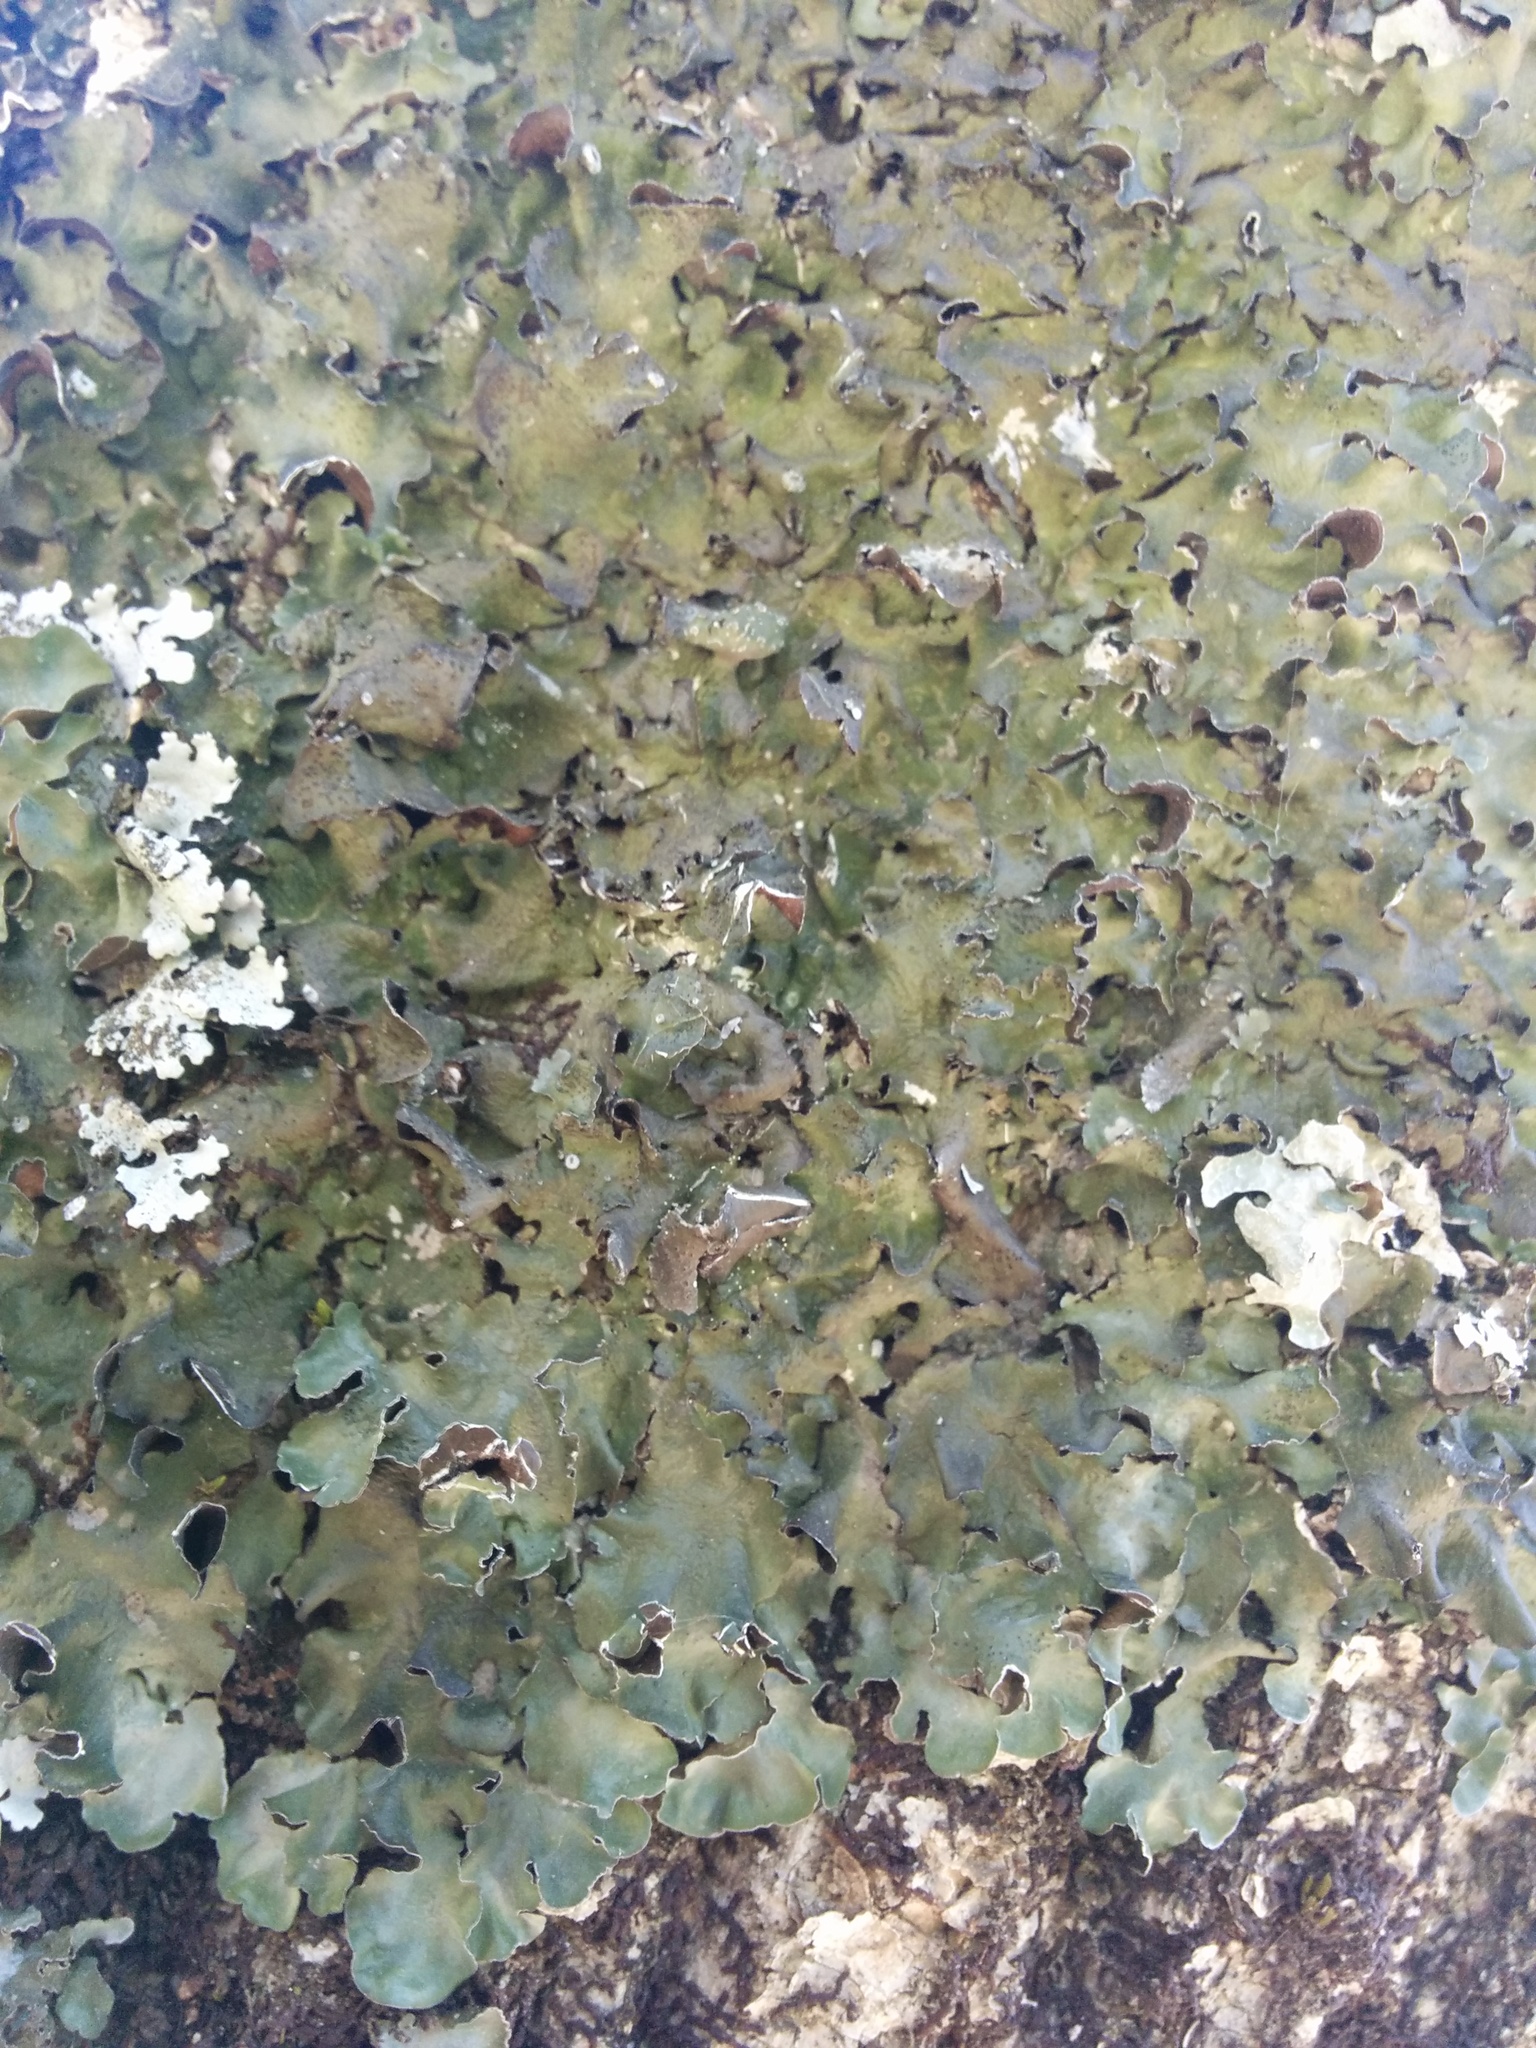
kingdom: Fungi
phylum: Ascomycota
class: Lecanoromycetes
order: Lecanorales
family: Parmeliaceae
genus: Pleurosticta
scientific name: Pleurosticta acetabulum
